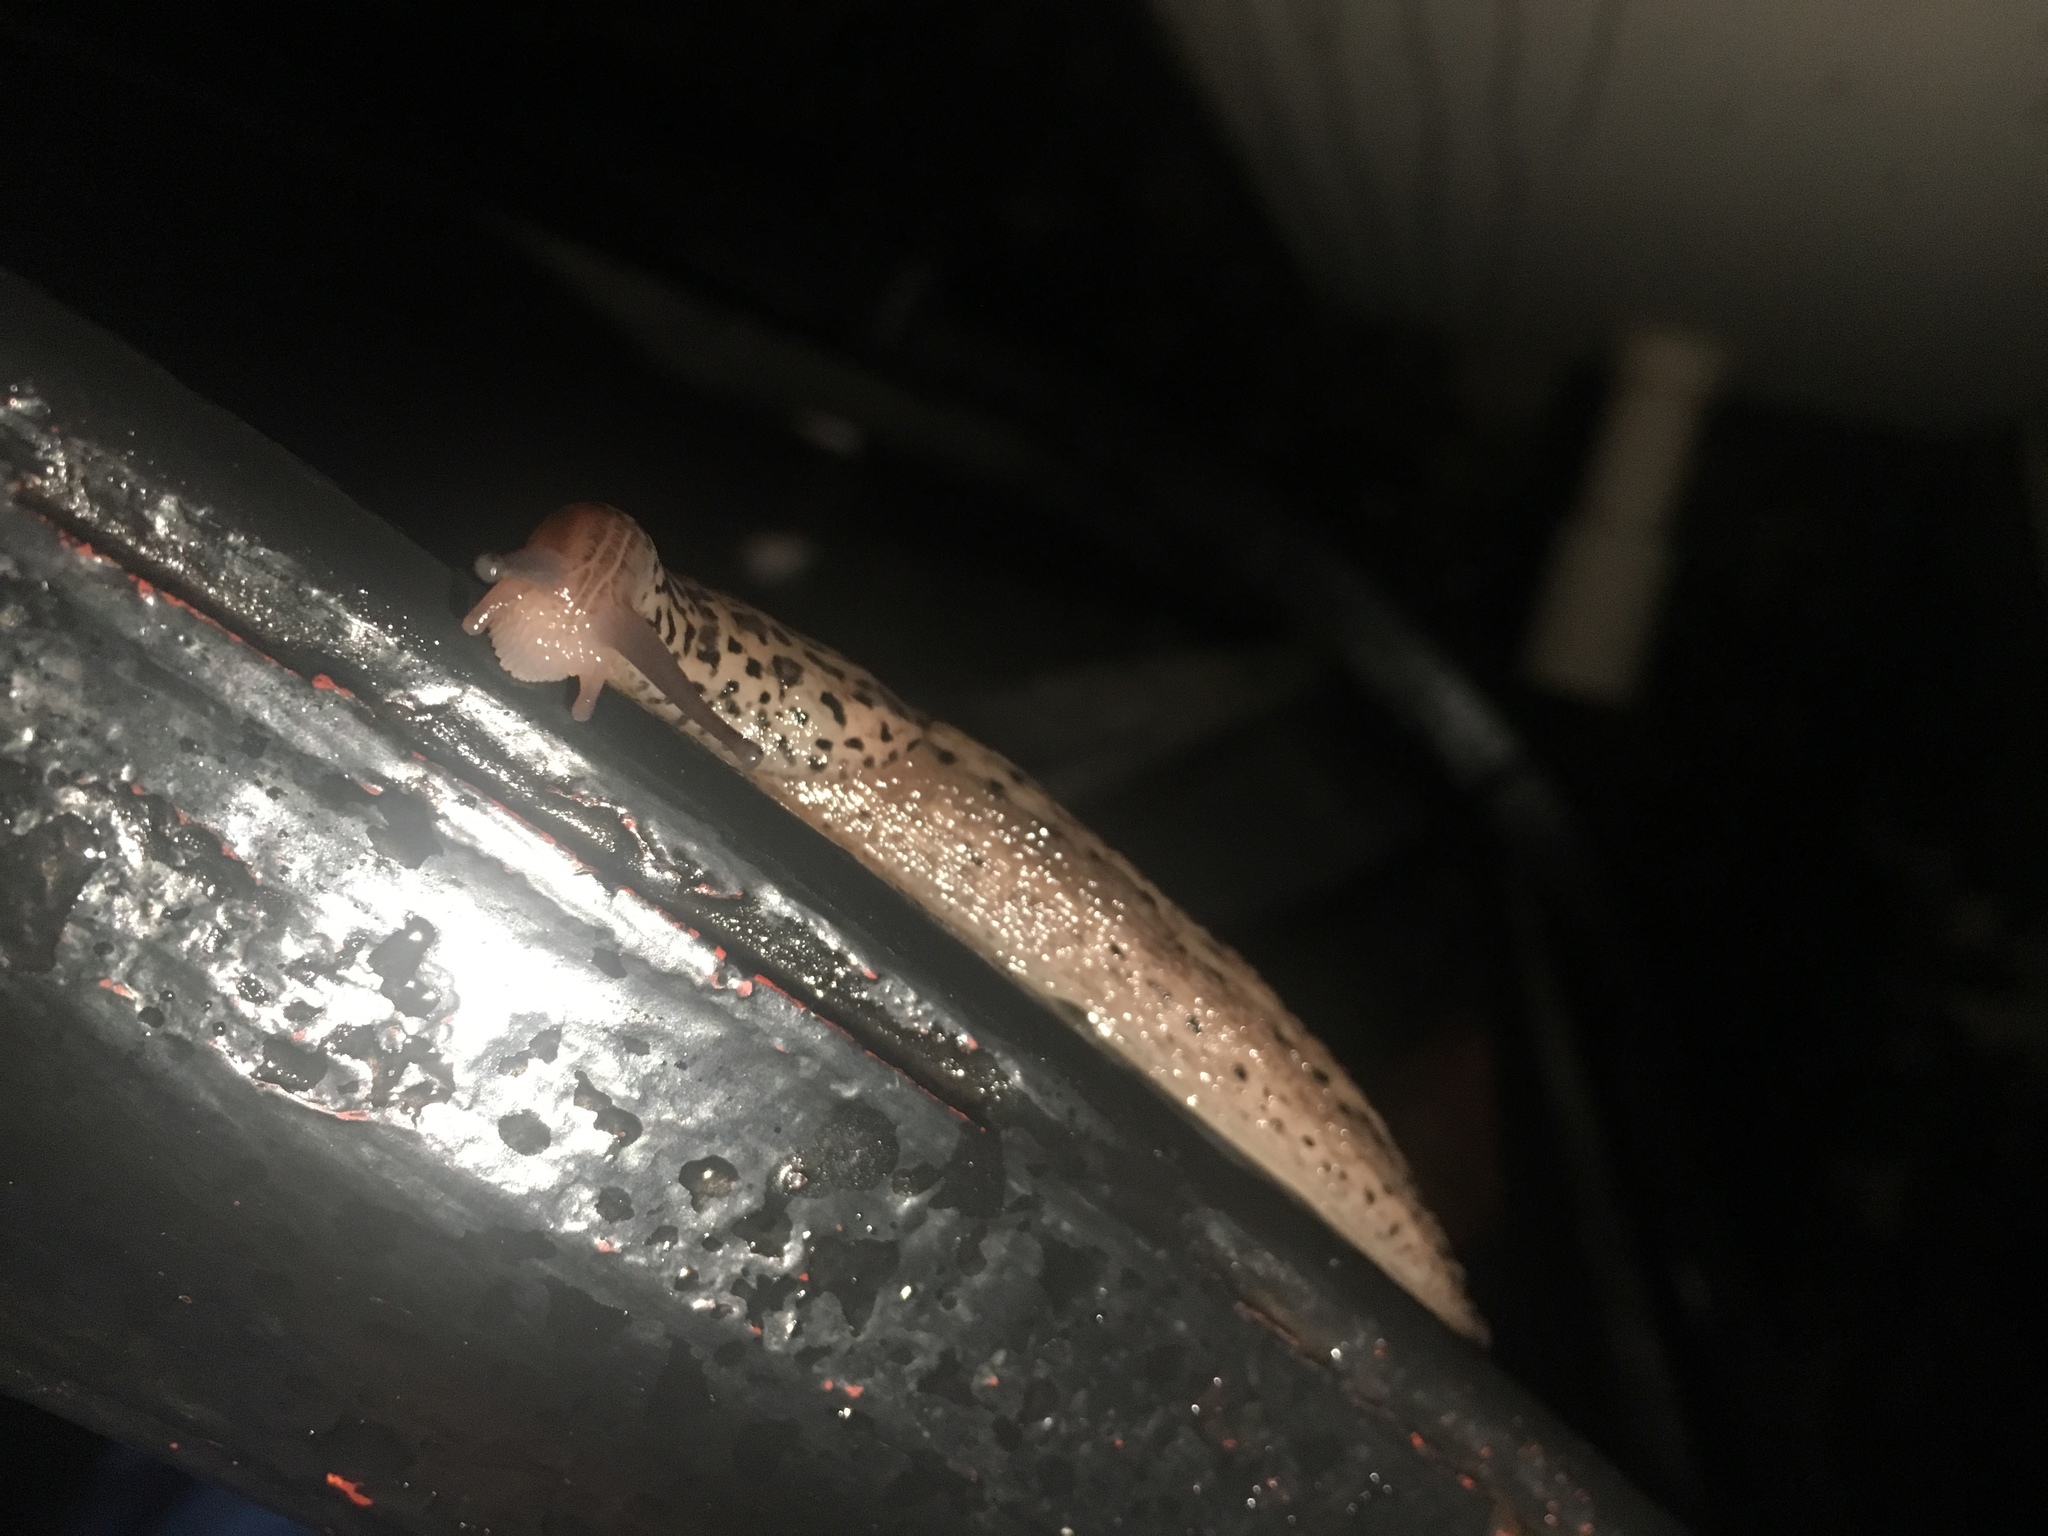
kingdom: Animalia
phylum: Mollusca
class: Gastropoda
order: Stylommatophora
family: Limacidae
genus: Limax
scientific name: Limax maximus
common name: Great grey slug
